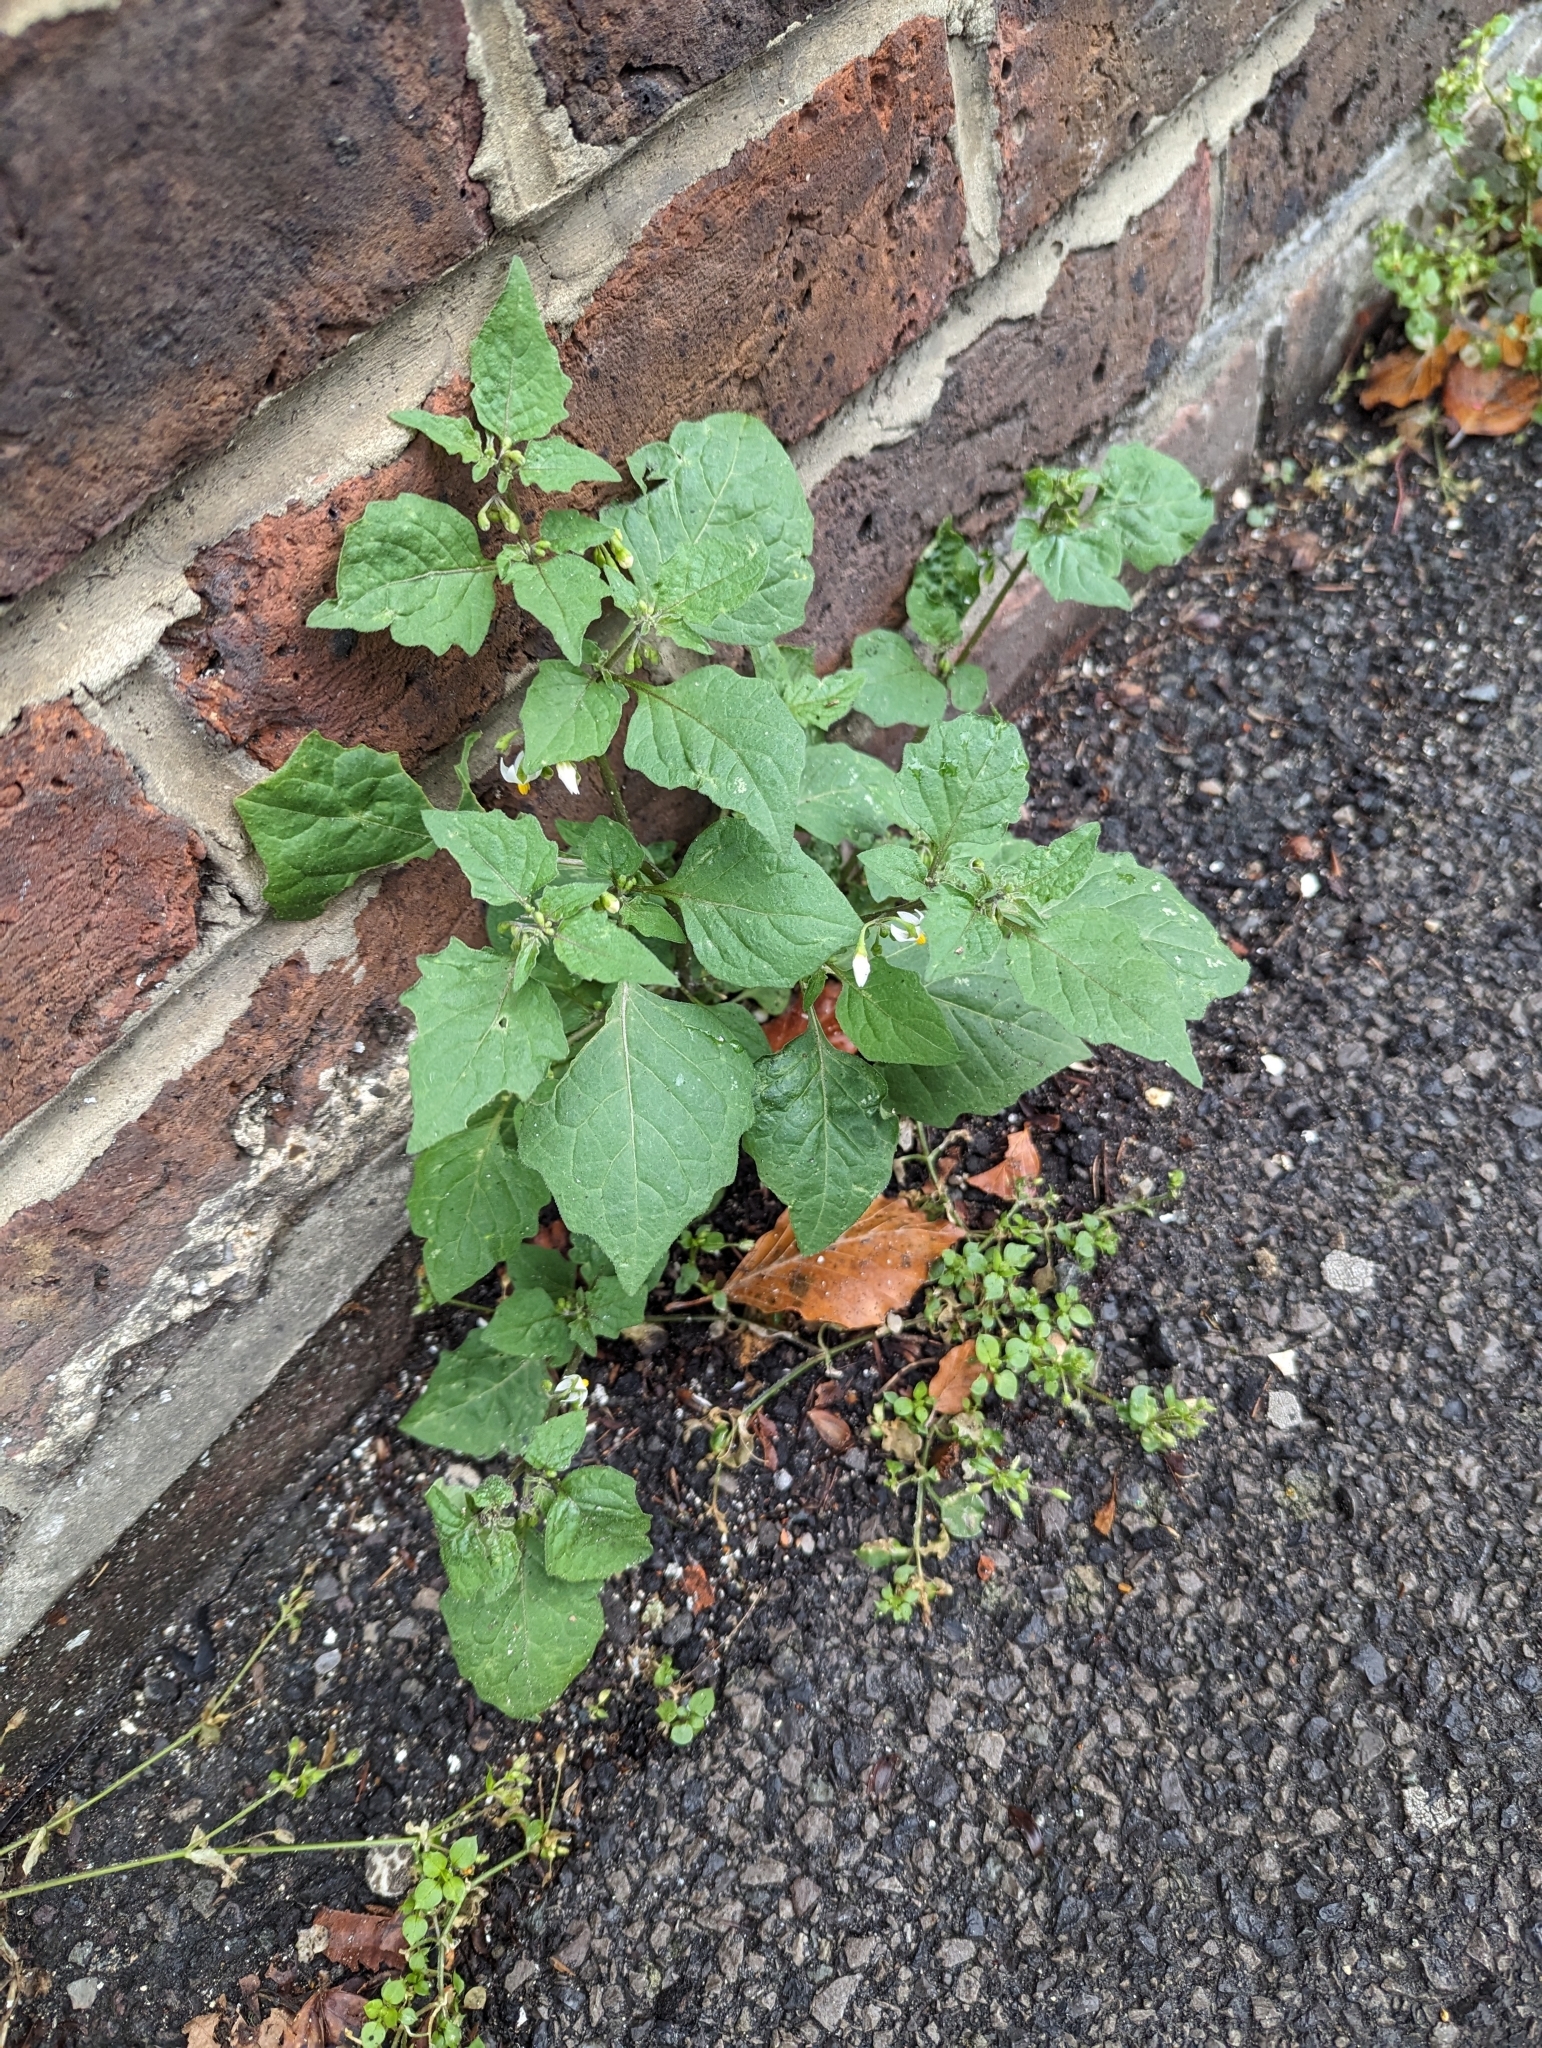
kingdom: Plantae
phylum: Tracheophyta
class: Magnoliopsida
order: Solanales
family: Solanaceae
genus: Solanum
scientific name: Solanum nigrum
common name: Black nightshade
